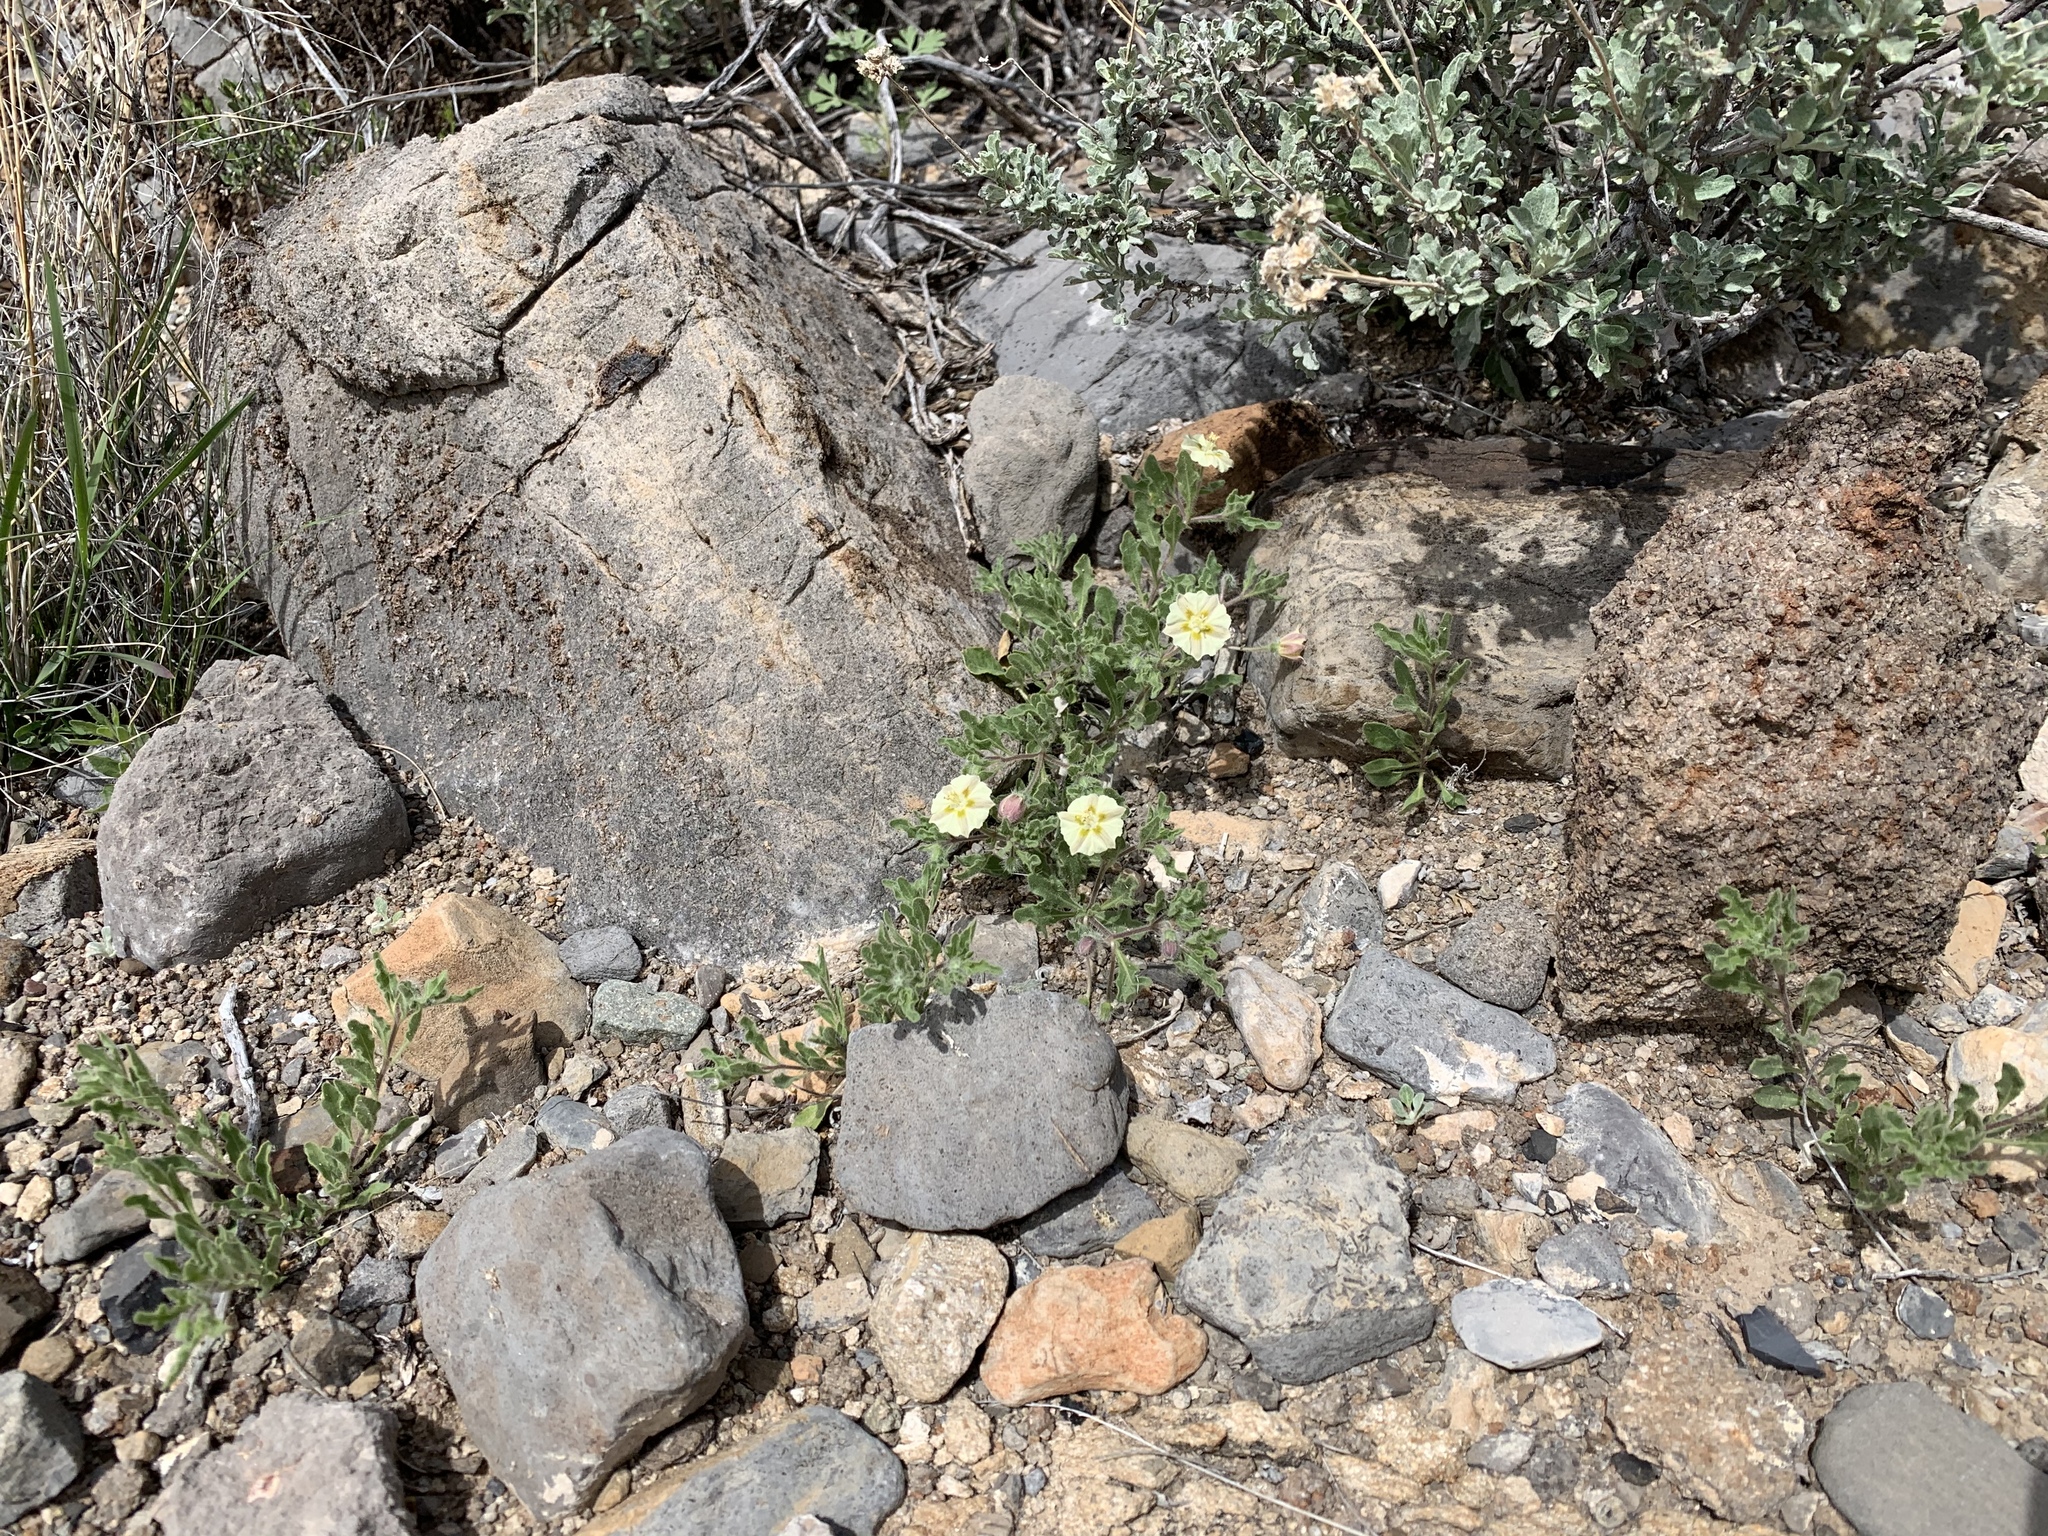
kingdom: Plantae
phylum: Tracheophyta
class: Magnoliopsida
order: Solanales
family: Solanaceae
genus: Chamaesaracha
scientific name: Chamaesaracha sordida
